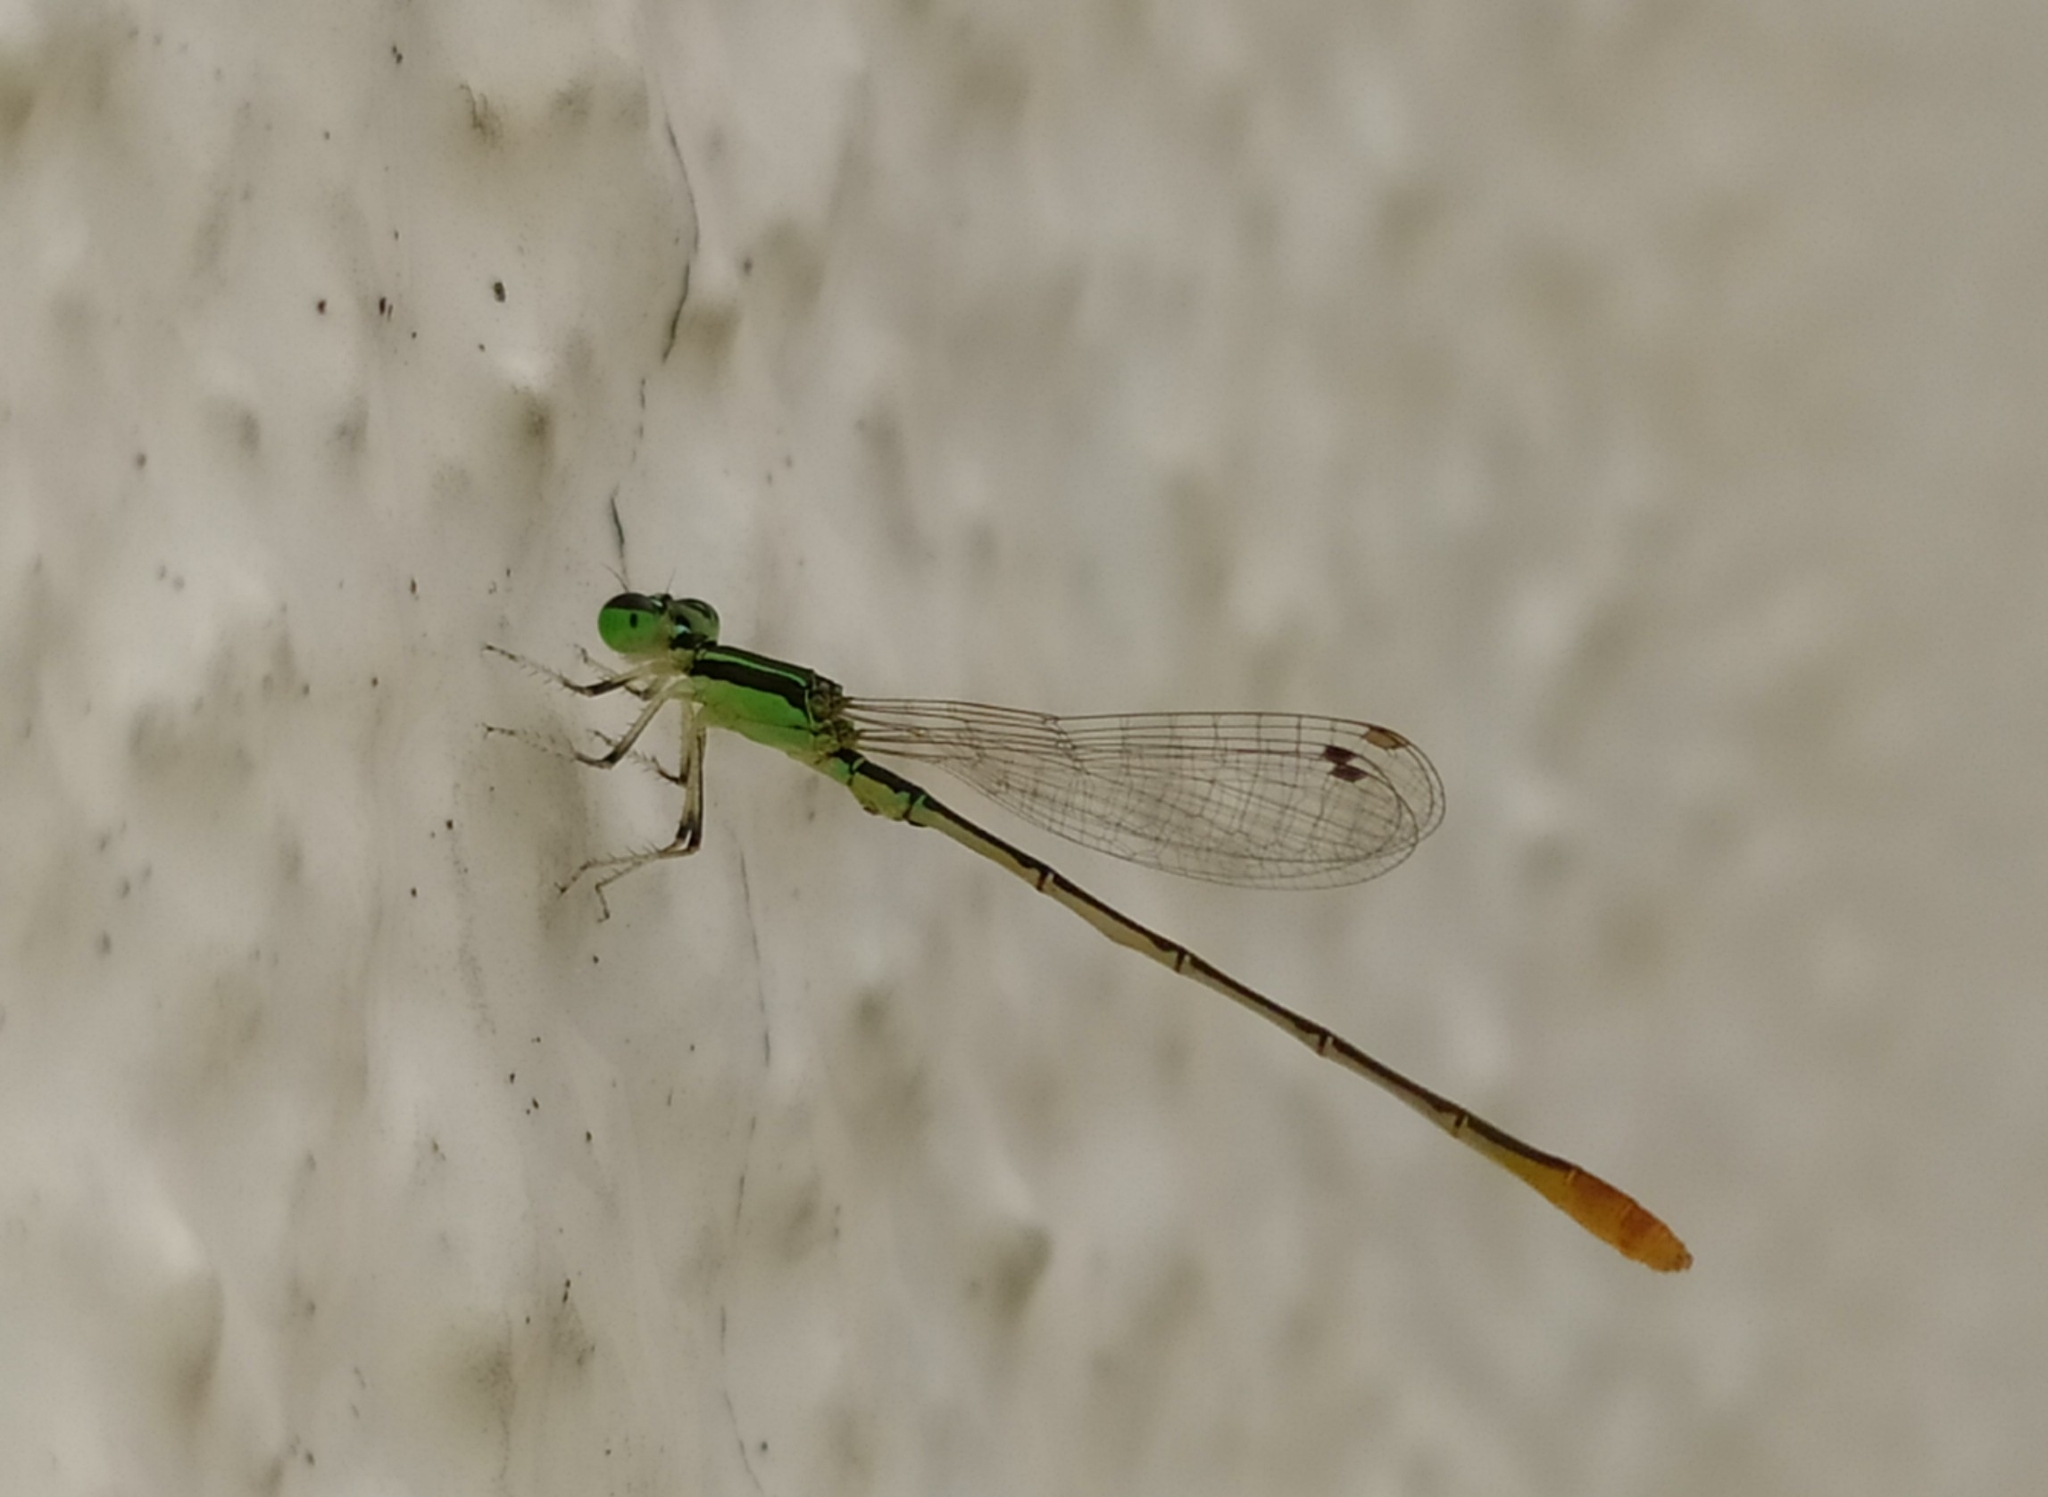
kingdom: Animalia
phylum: Arthropoda
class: Insecta
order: Odonata
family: Coenagrionidae
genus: Agriocnemis
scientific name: Agriocnemis pygmaea
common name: Pygmy wisp
